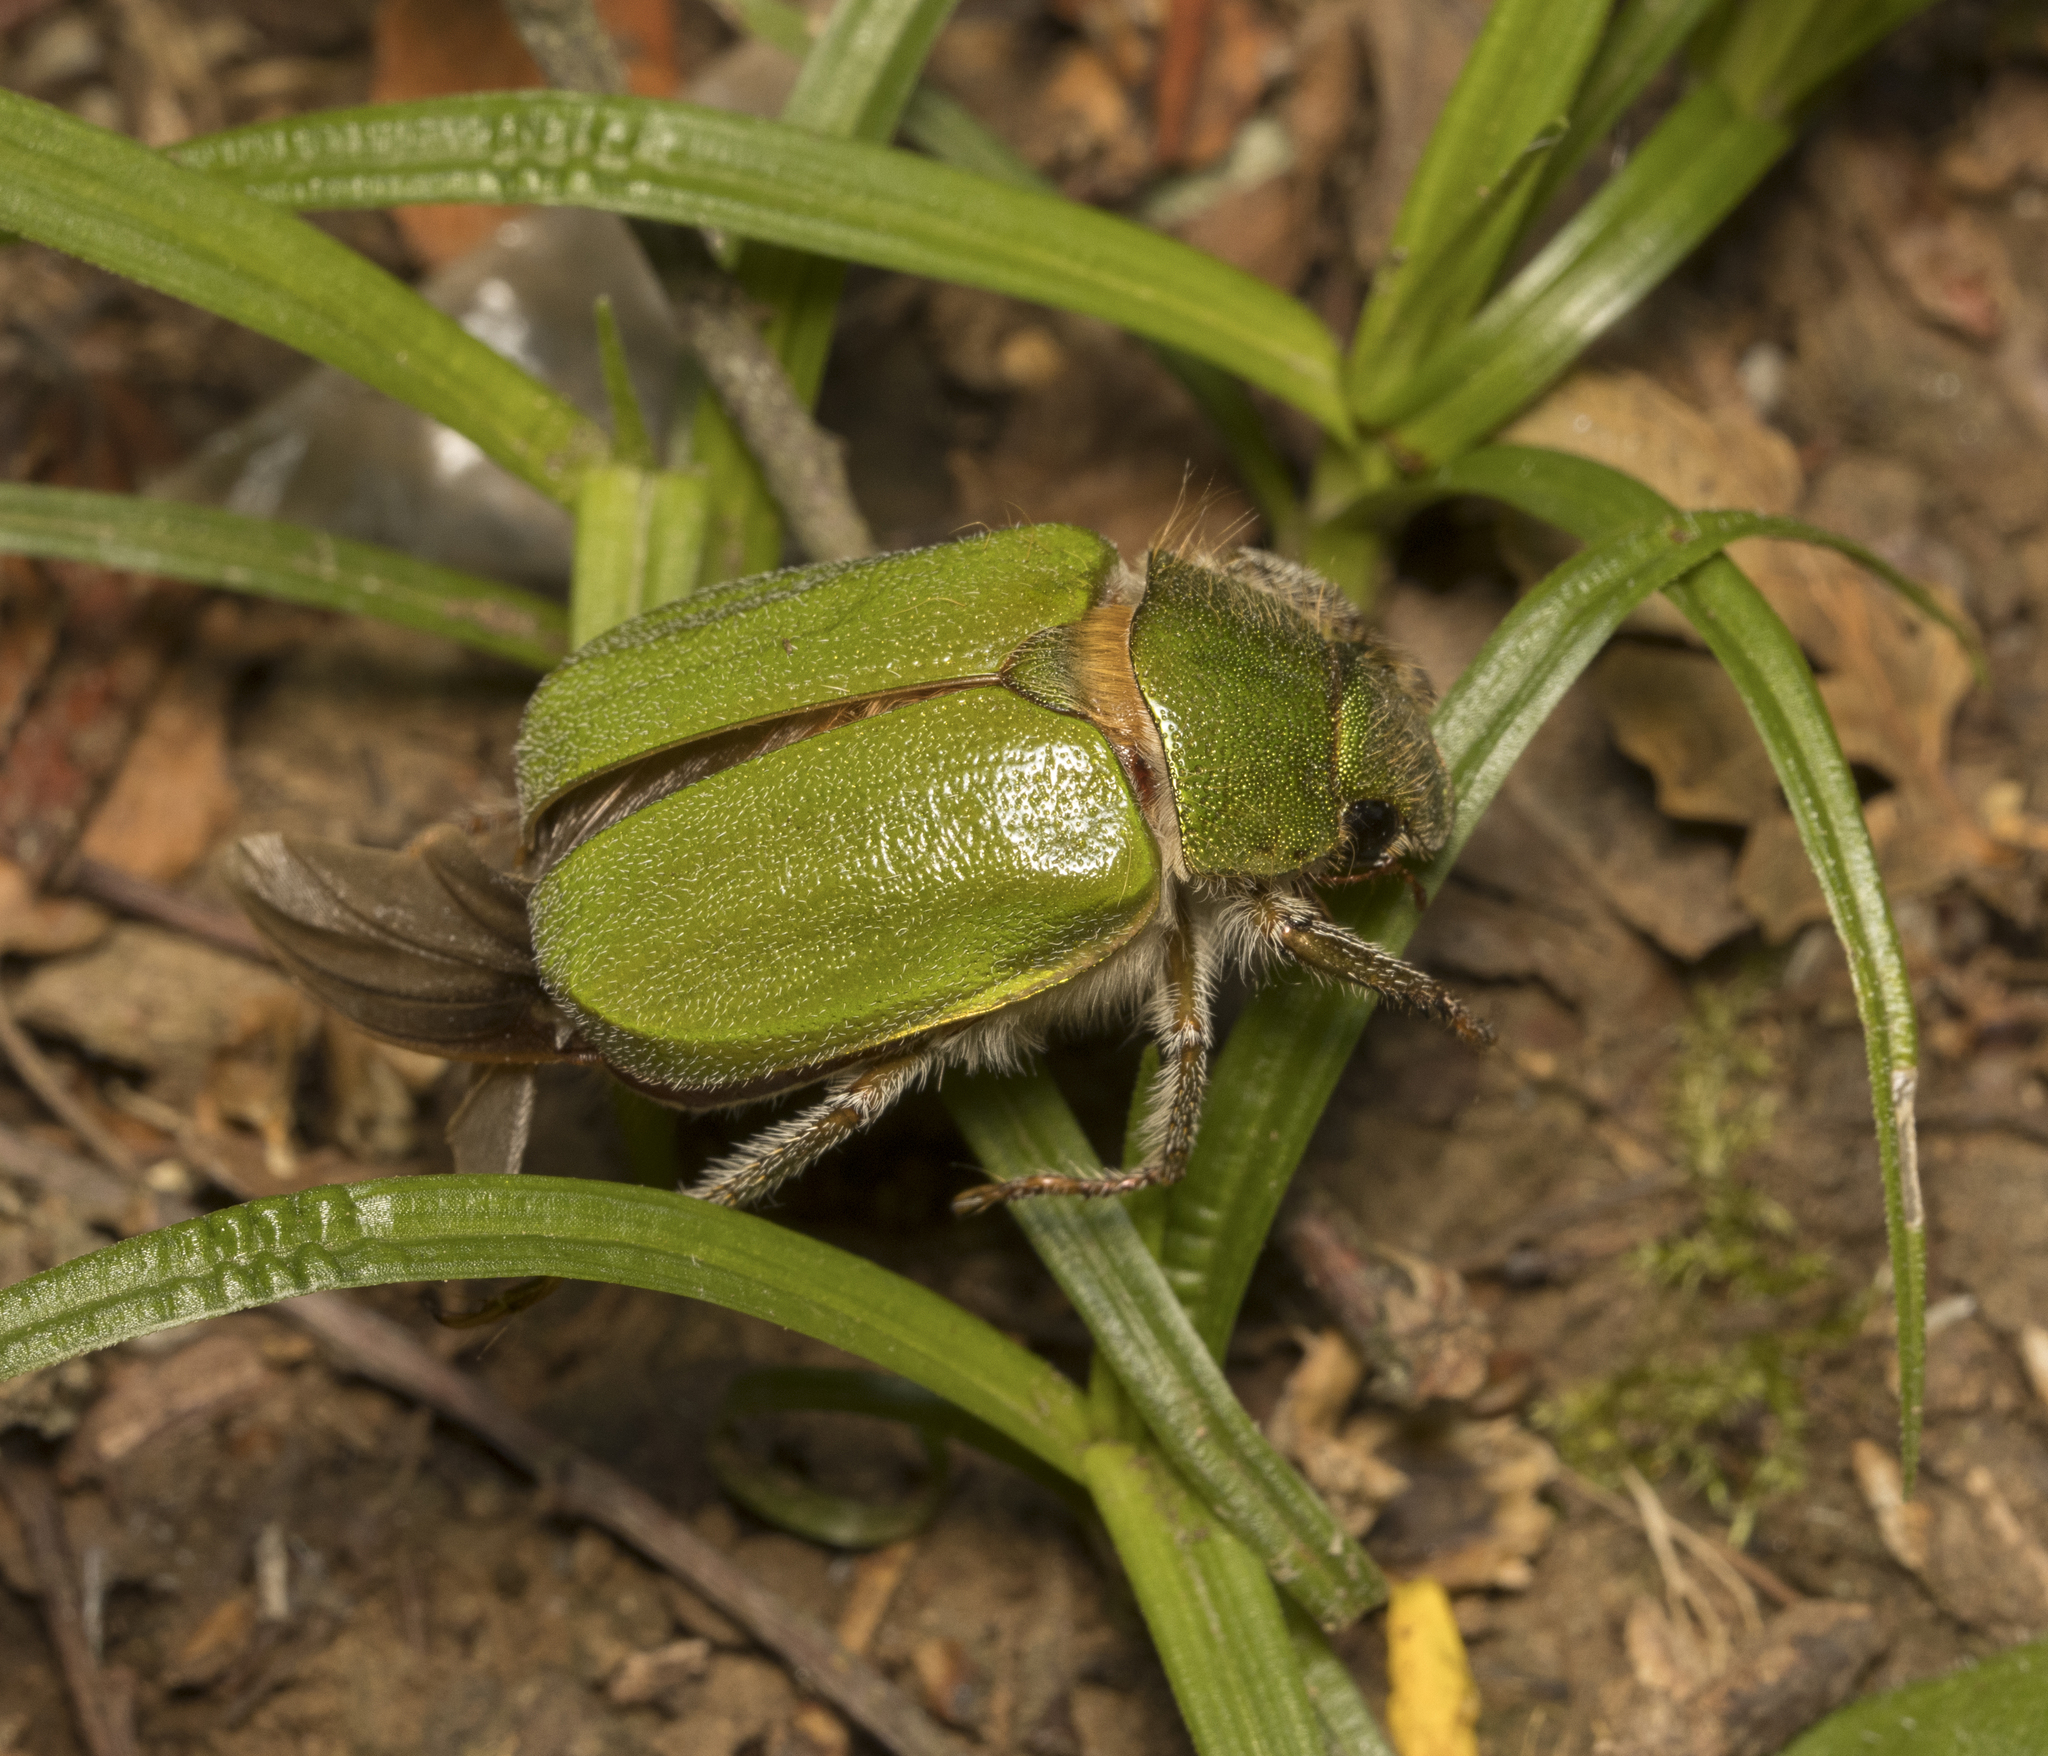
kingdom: Animalia
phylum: Arthropoda
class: Insecta
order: Coleoptera
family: Scarabaeidae
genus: Brachysternus
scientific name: Brachysternus spectabilis
